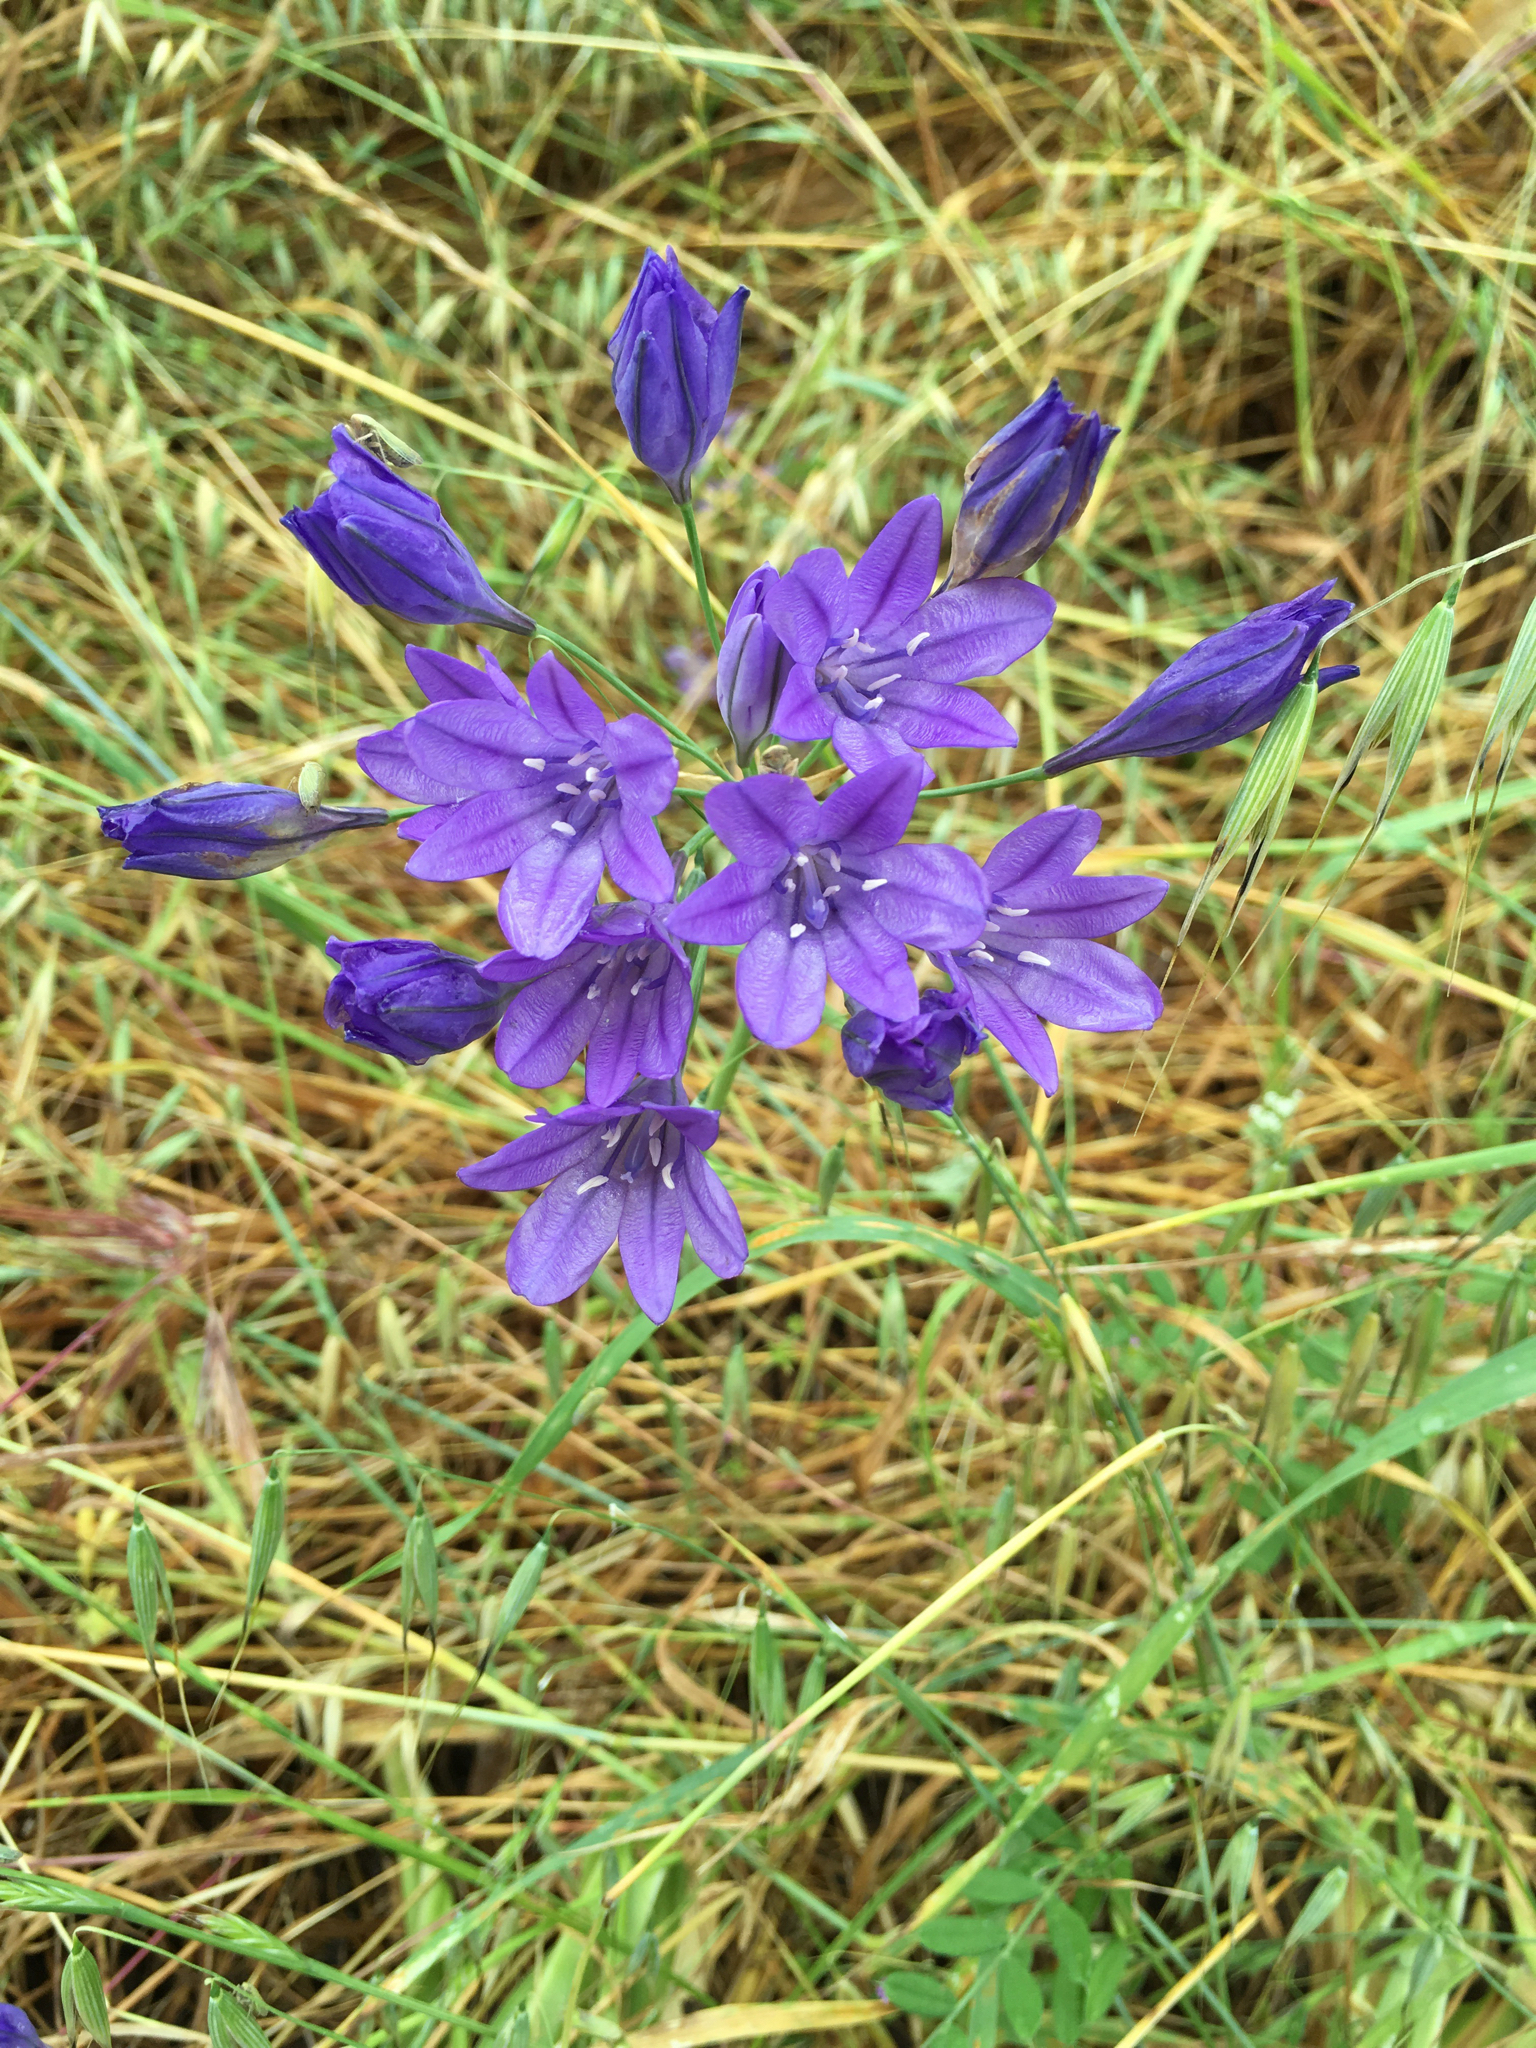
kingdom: Plantae
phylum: Tracheophyta
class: Liliopsida
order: Asparagales
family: Asparagaceae
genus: Triteleia
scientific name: Triteleia laxa
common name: Triplet-lily
